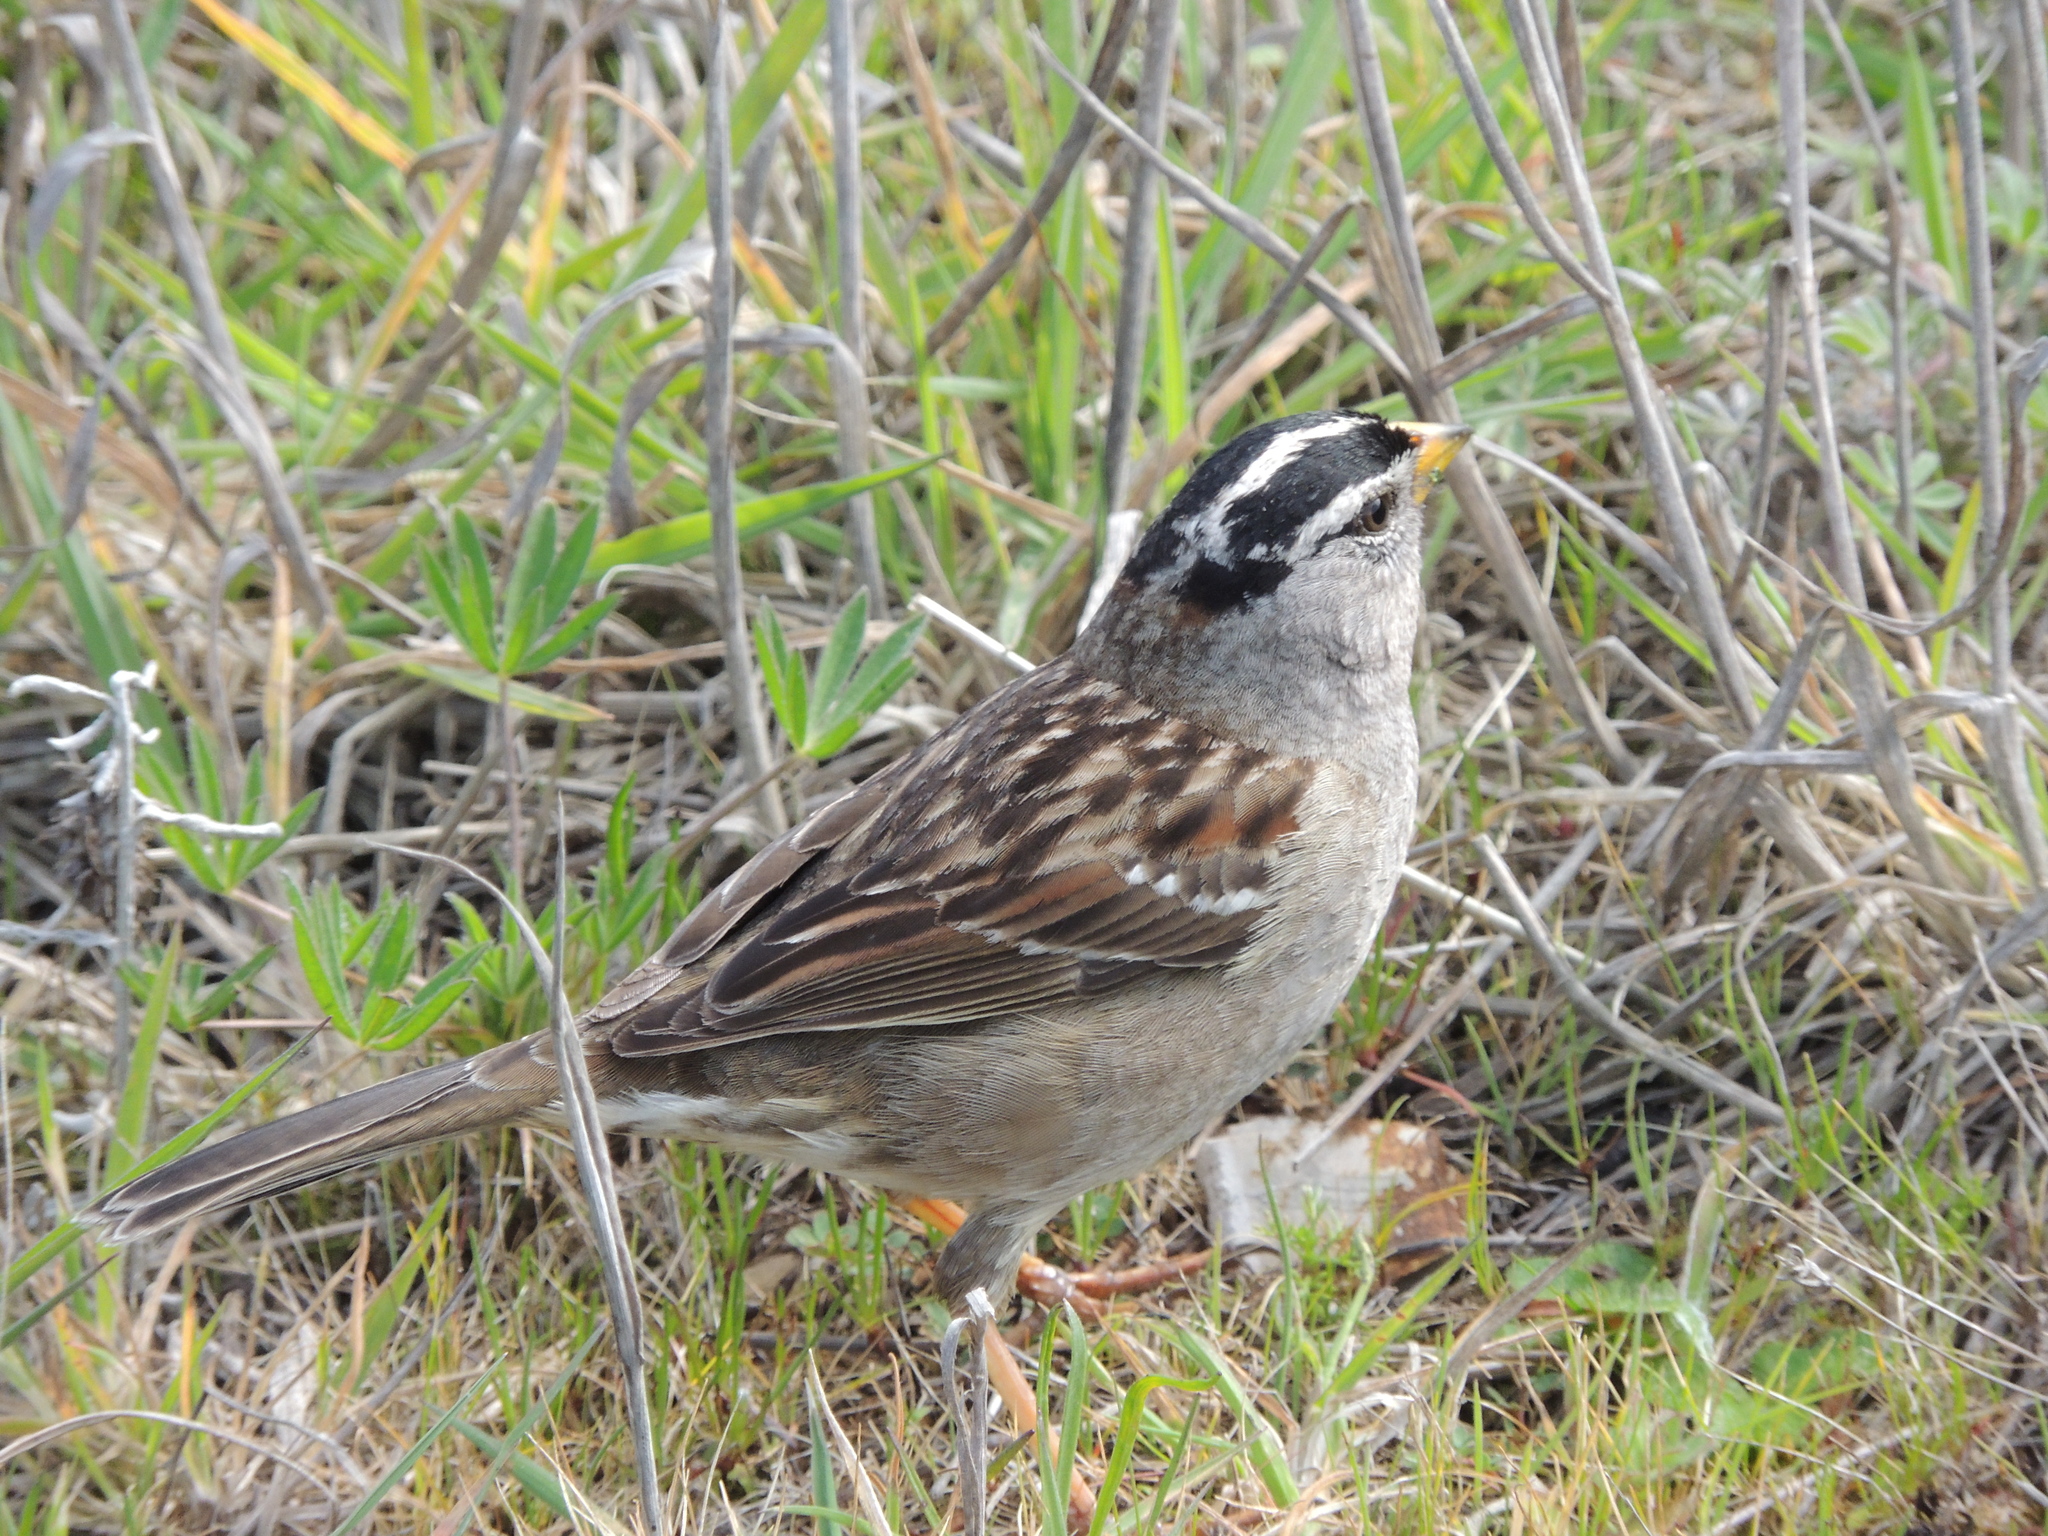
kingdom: Animalia
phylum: Chordata
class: Aves
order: Passeriformes
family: Passerellidae
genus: Zonotrichia
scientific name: Zonotrichia leucophrys
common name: White-crowned sparrow
